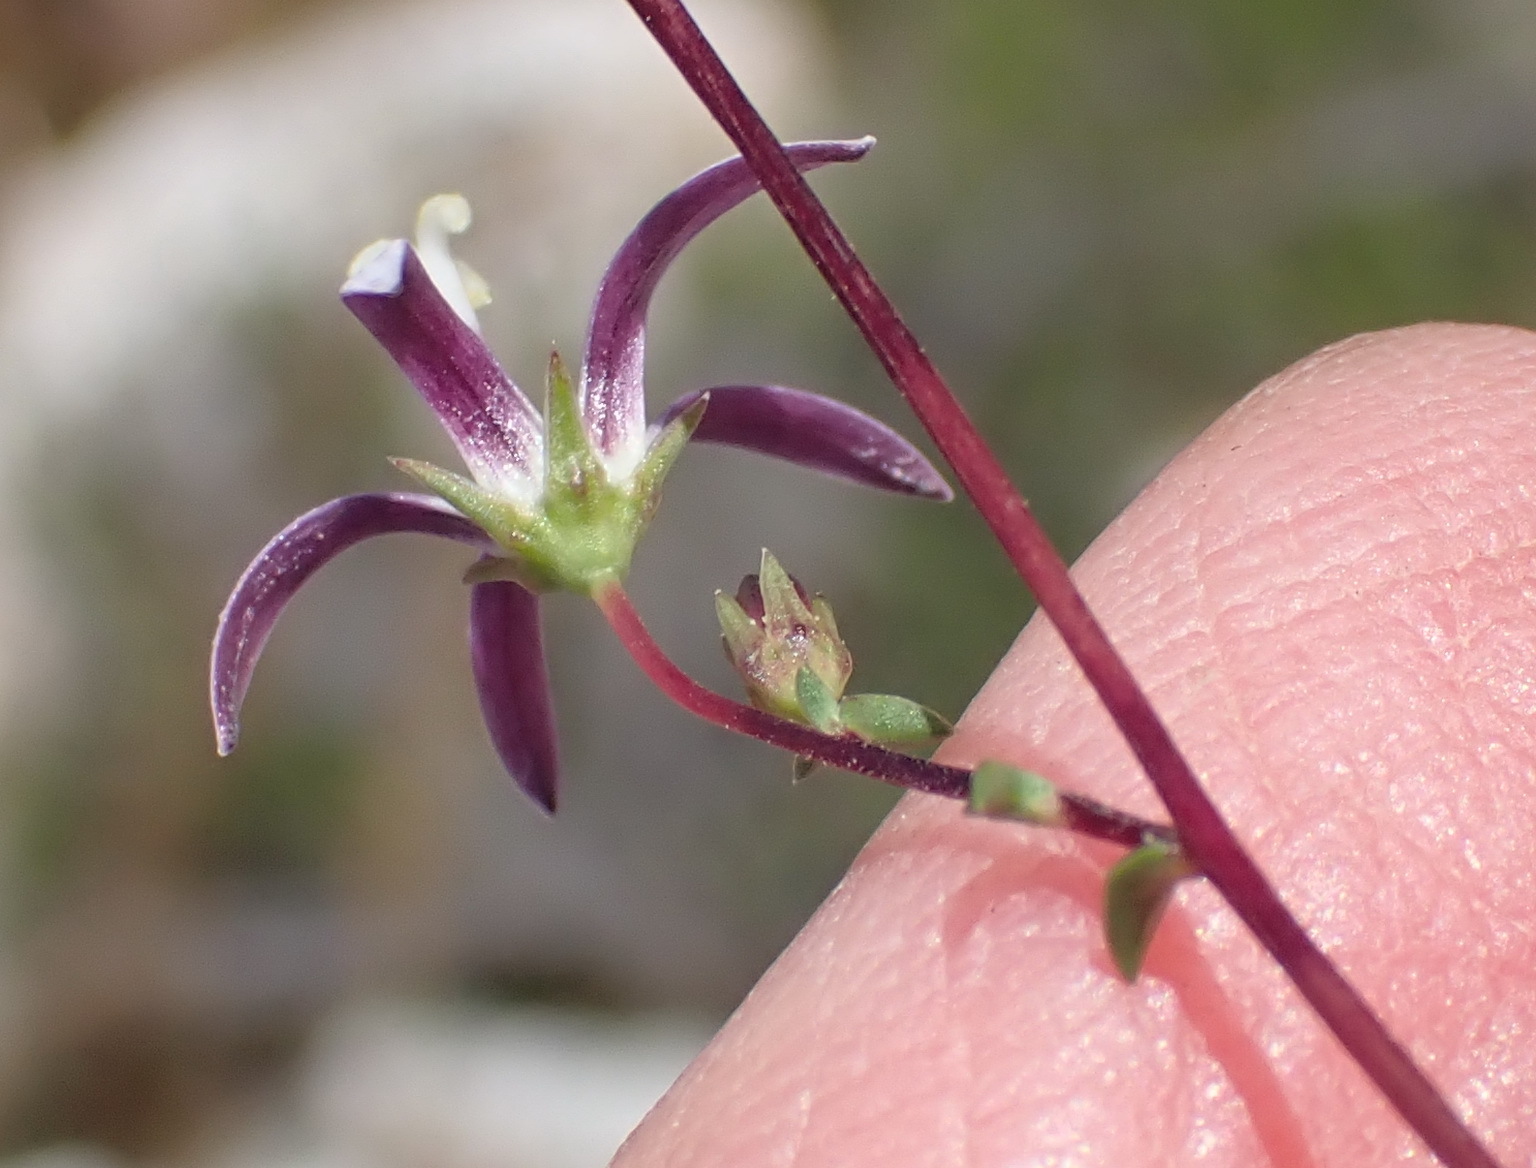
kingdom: Plantae
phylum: Tracheophyta
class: Magnoliopsida
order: Asterales
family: Campanulaceae
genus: Wahlenbergia
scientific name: Wahlenbergia parvifolia
